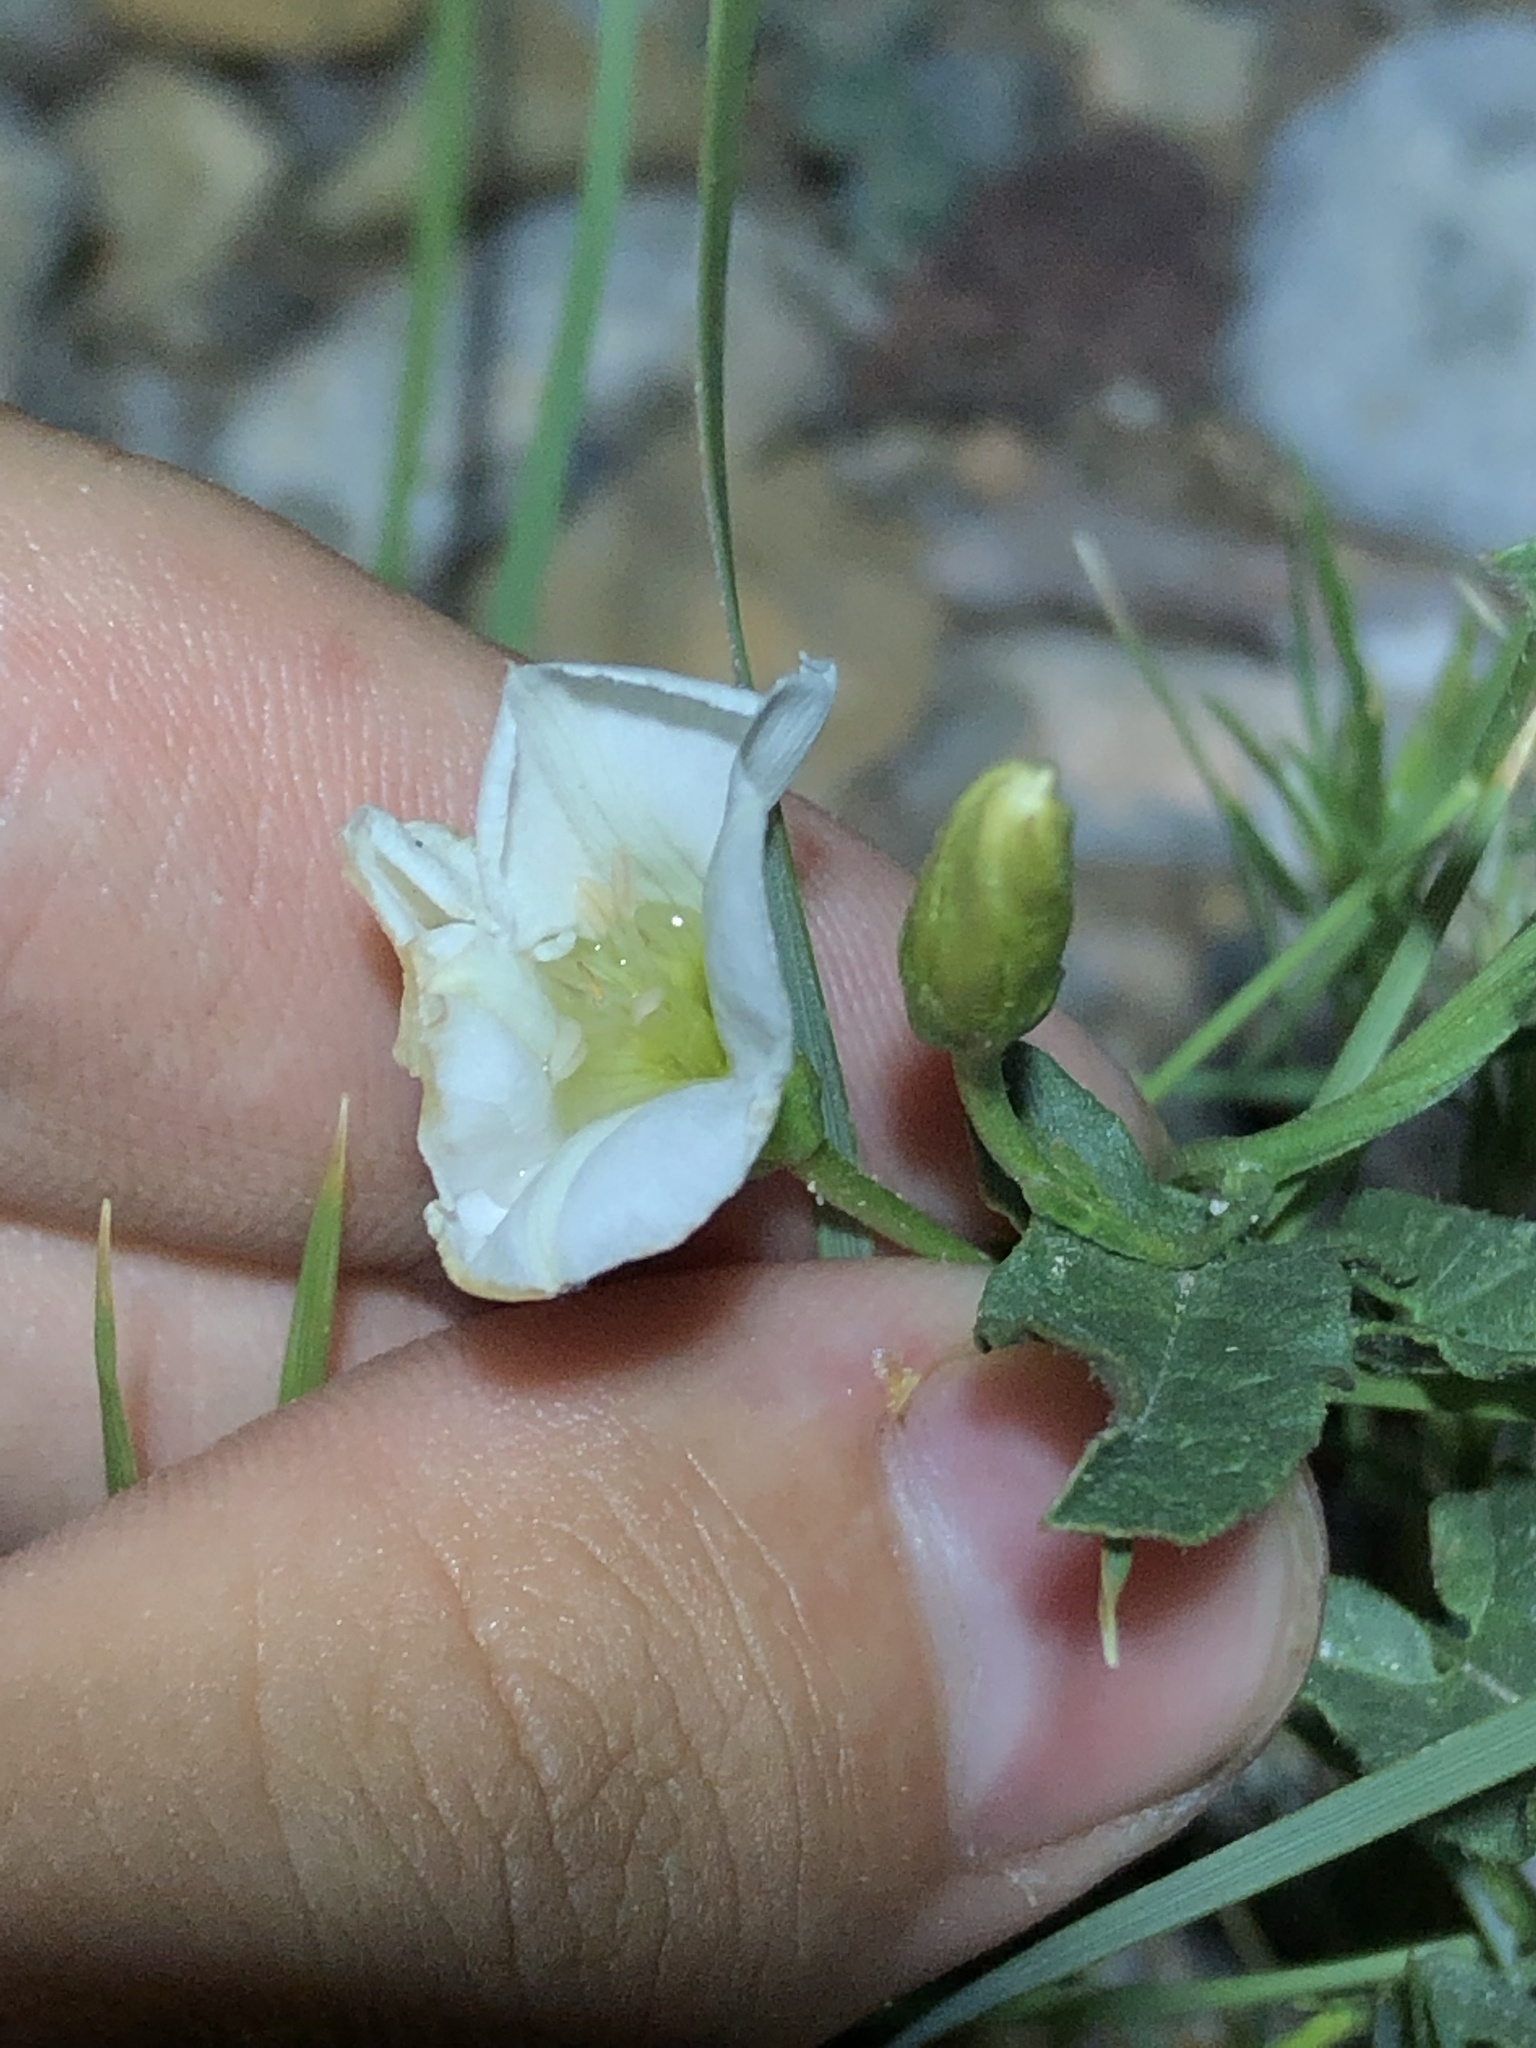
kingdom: Plantae
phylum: Tracheophyta
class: Magnoliopsida
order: Solanales
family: Convolvulaceae
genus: Convolvulus
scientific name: Convolvulus arvensis
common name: Field bindweed
